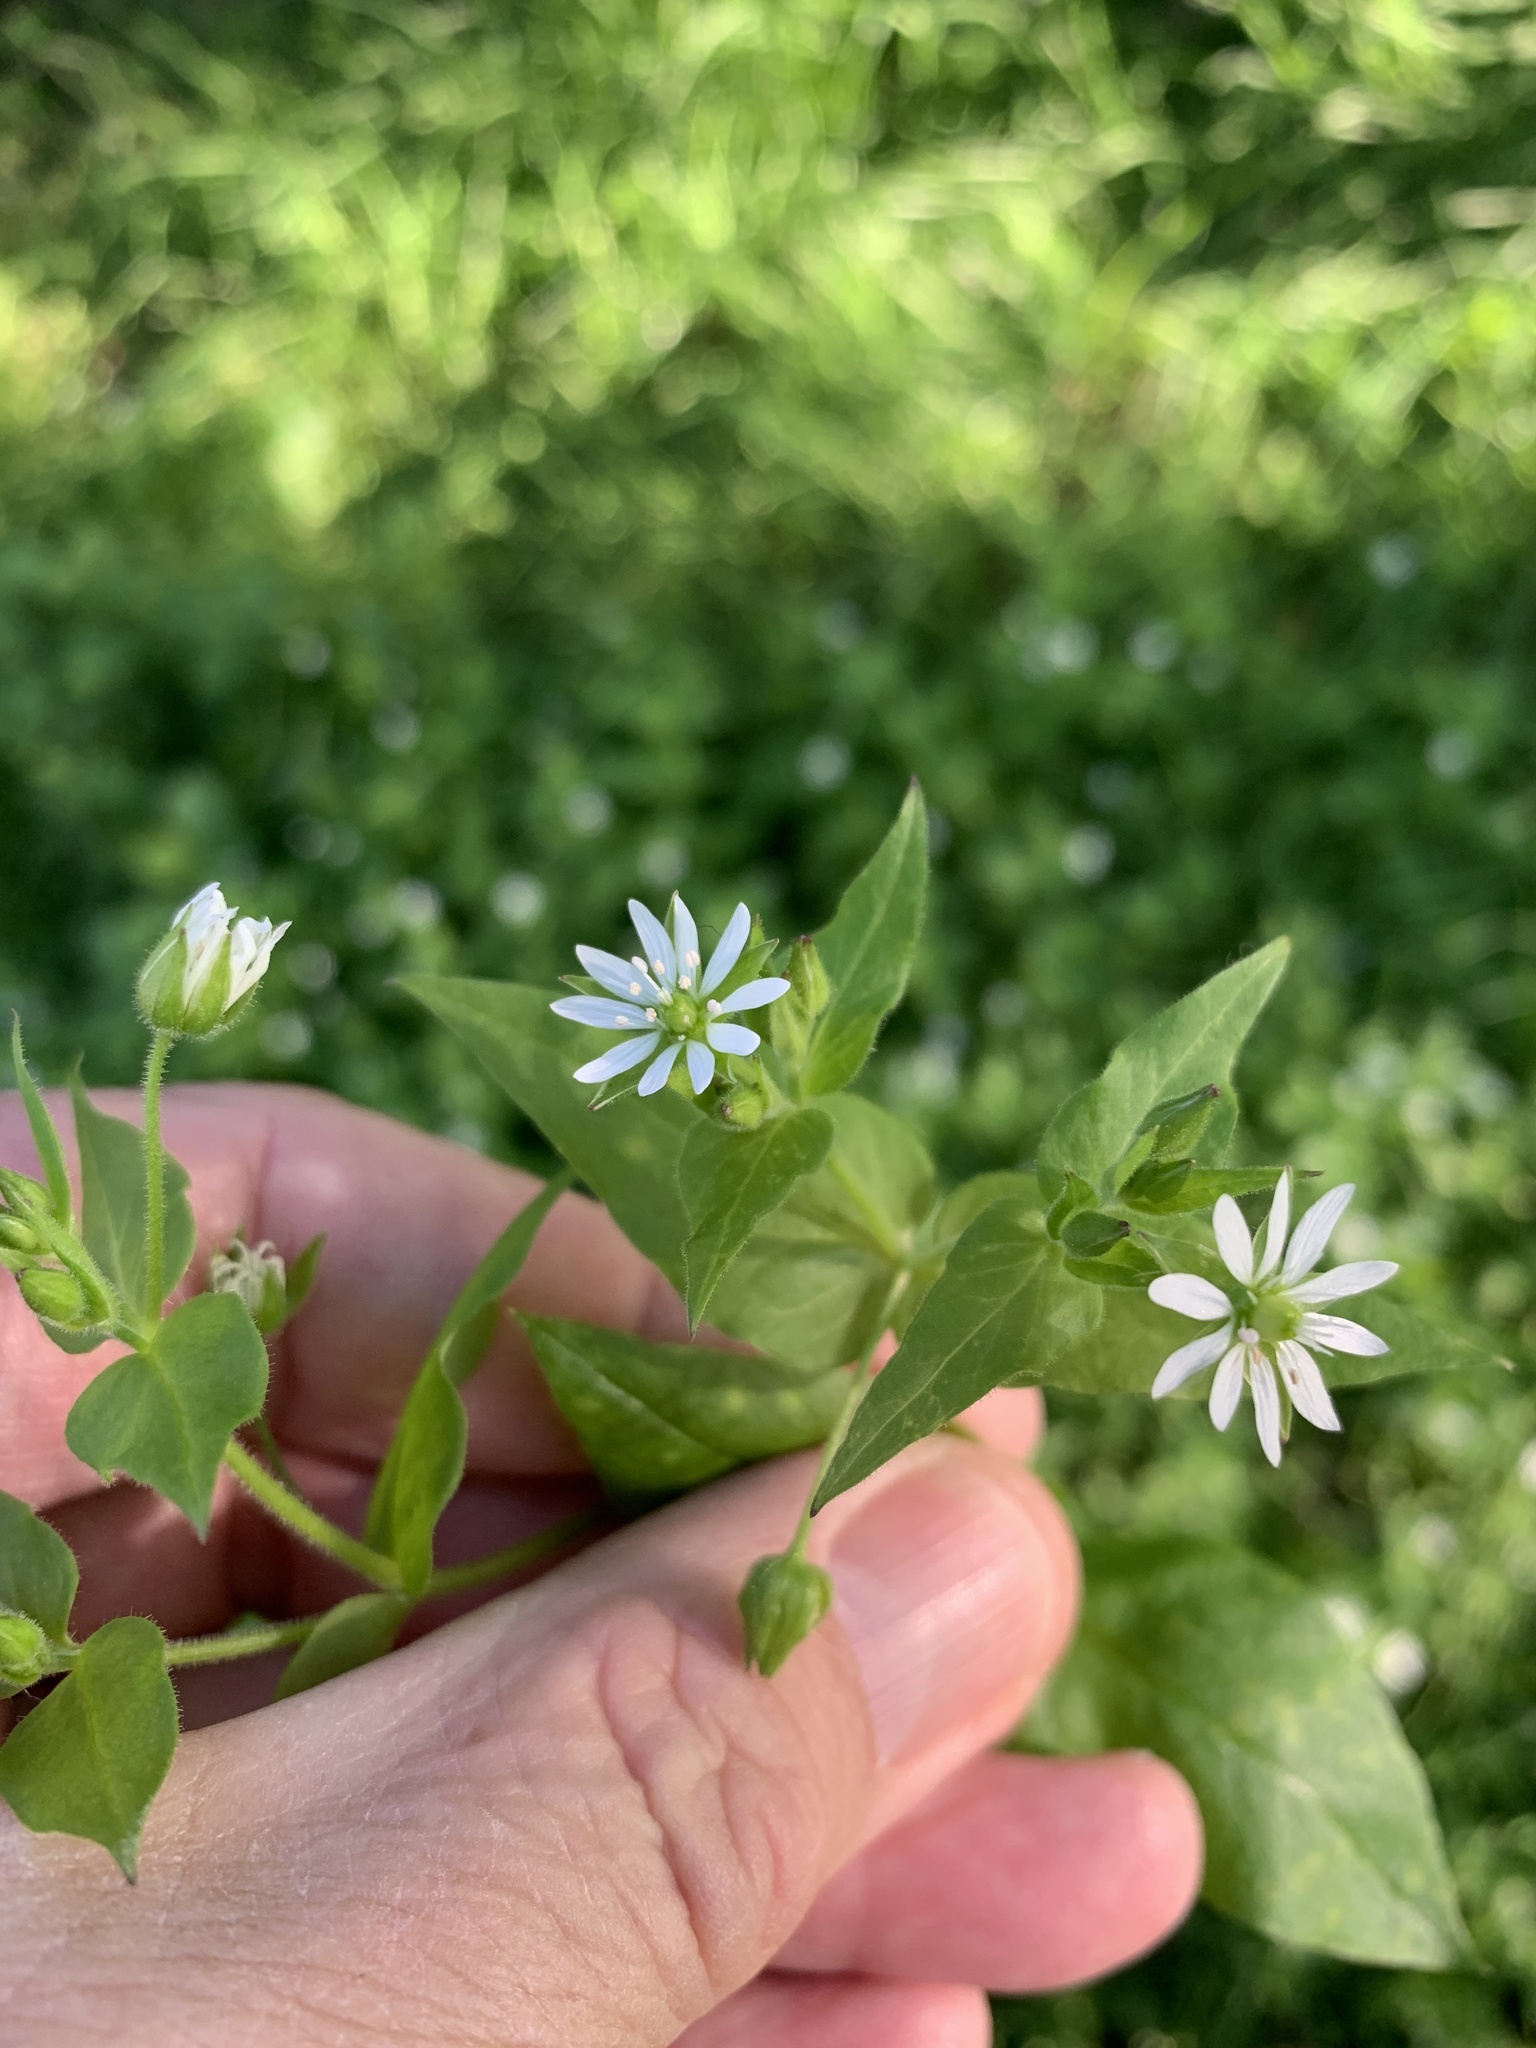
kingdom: Plantae
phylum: Tracheophyta
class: Magnoliopsida
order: Caryophyllales
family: Caryophyllaceae
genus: Stellaria
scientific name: Stellaria aquatica
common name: Water chickweed
